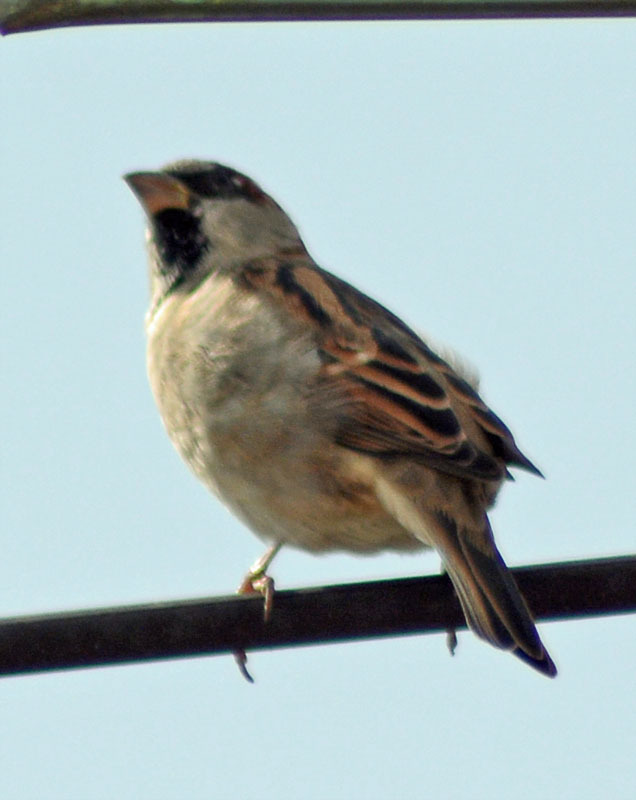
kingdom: Animalia
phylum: Chordata
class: Aves
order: Passeriformes
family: Passeridae
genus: Passer
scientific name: Passer domesticus
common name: House sparrow
